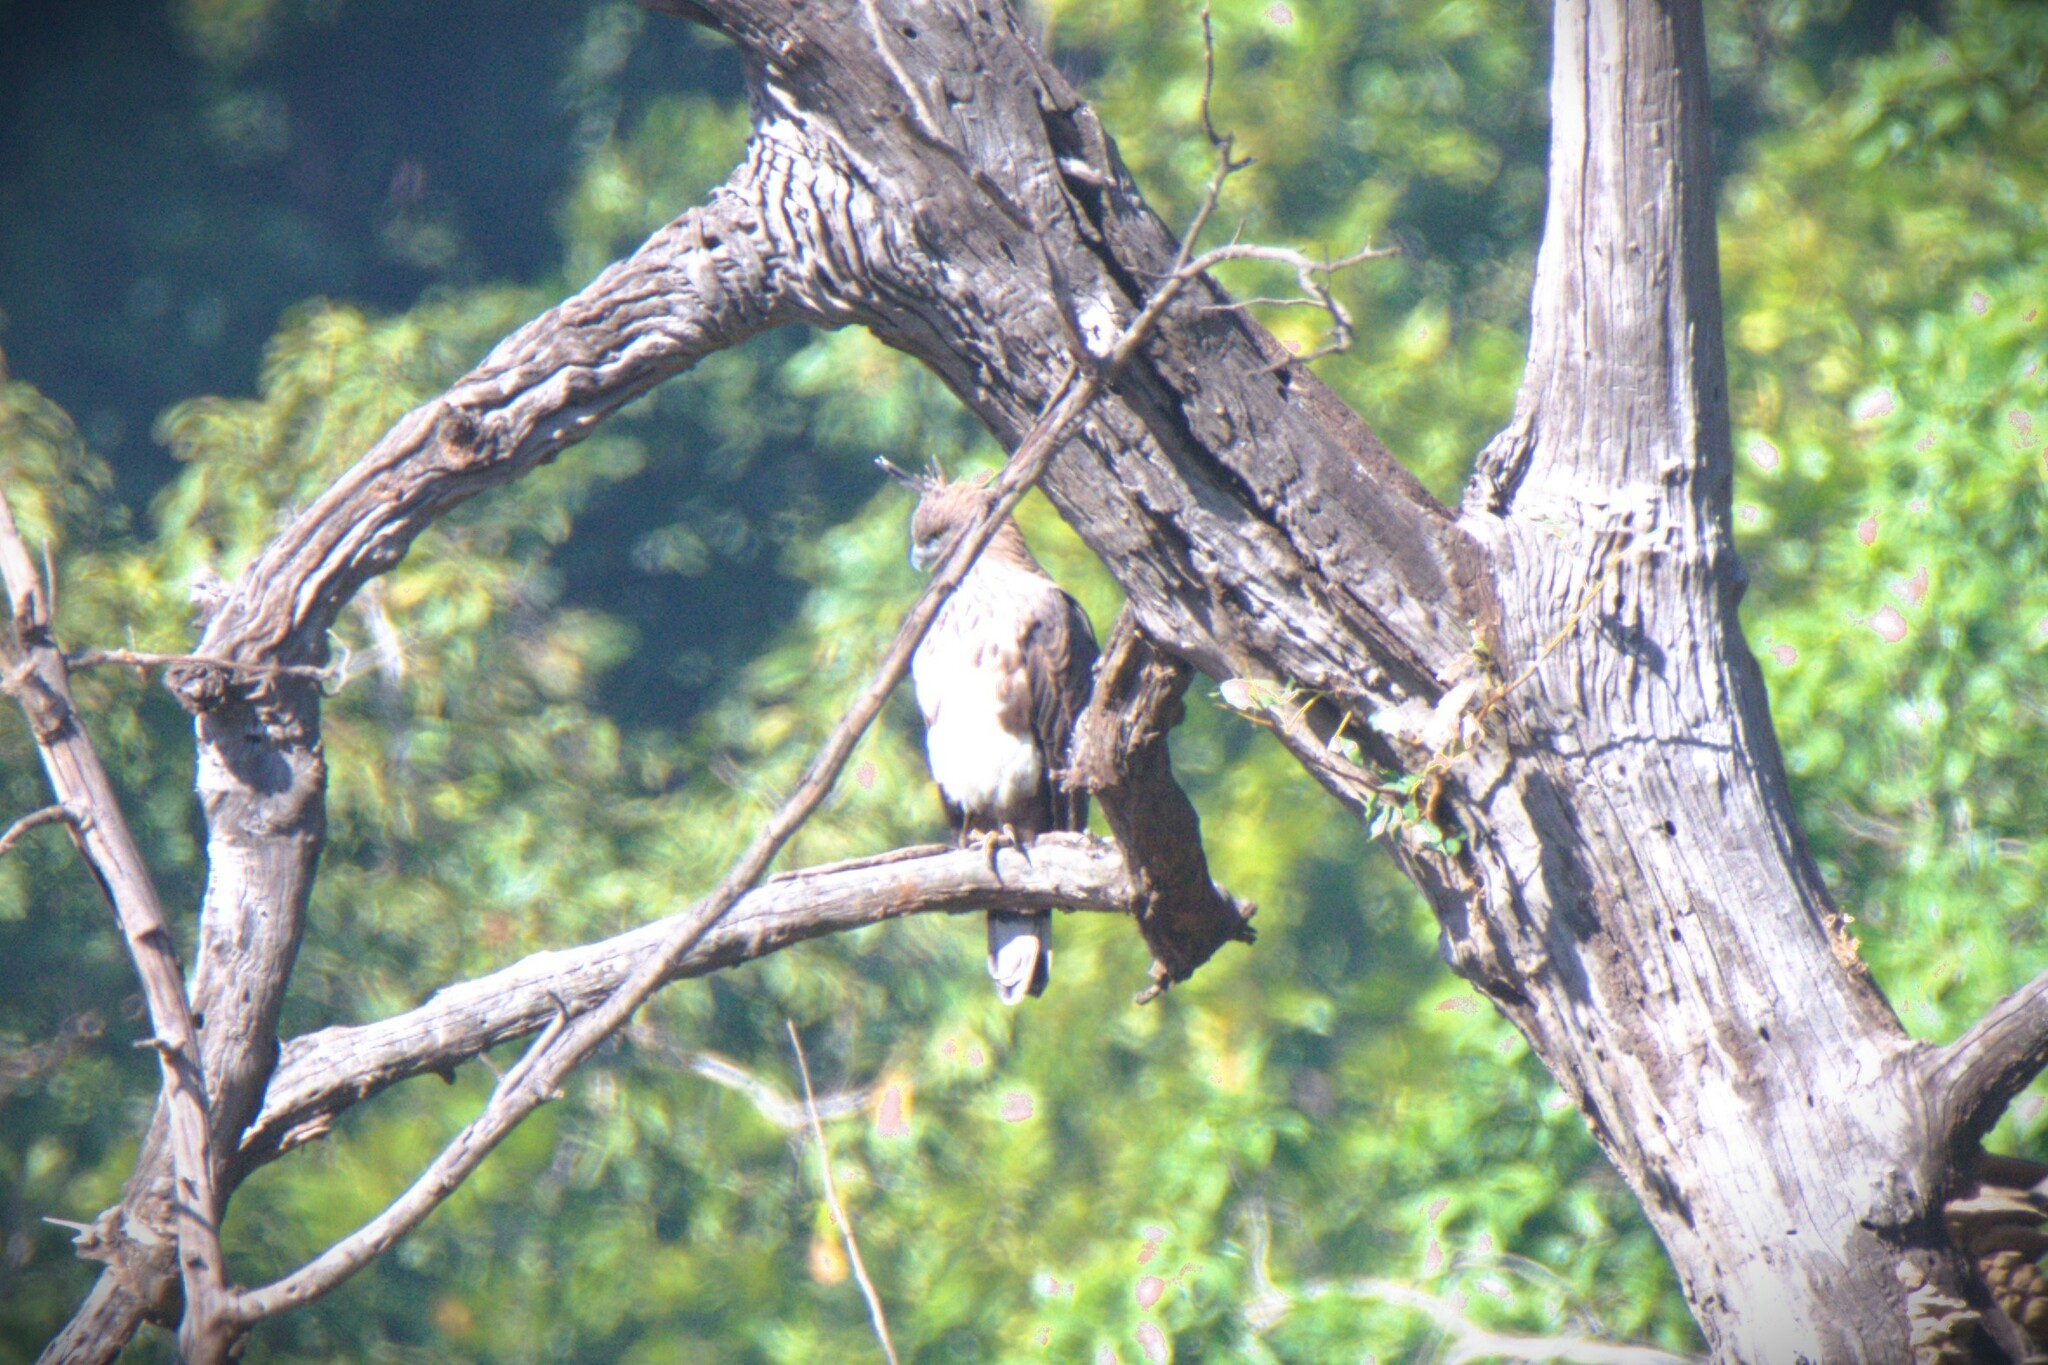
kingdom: Animalia
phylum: Chordata
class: Aves
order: Accipitriformes
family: Accipitridae
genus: Nisaetus
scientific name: Nisaetus cirrhatus
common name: Changeable hawk-eagle
